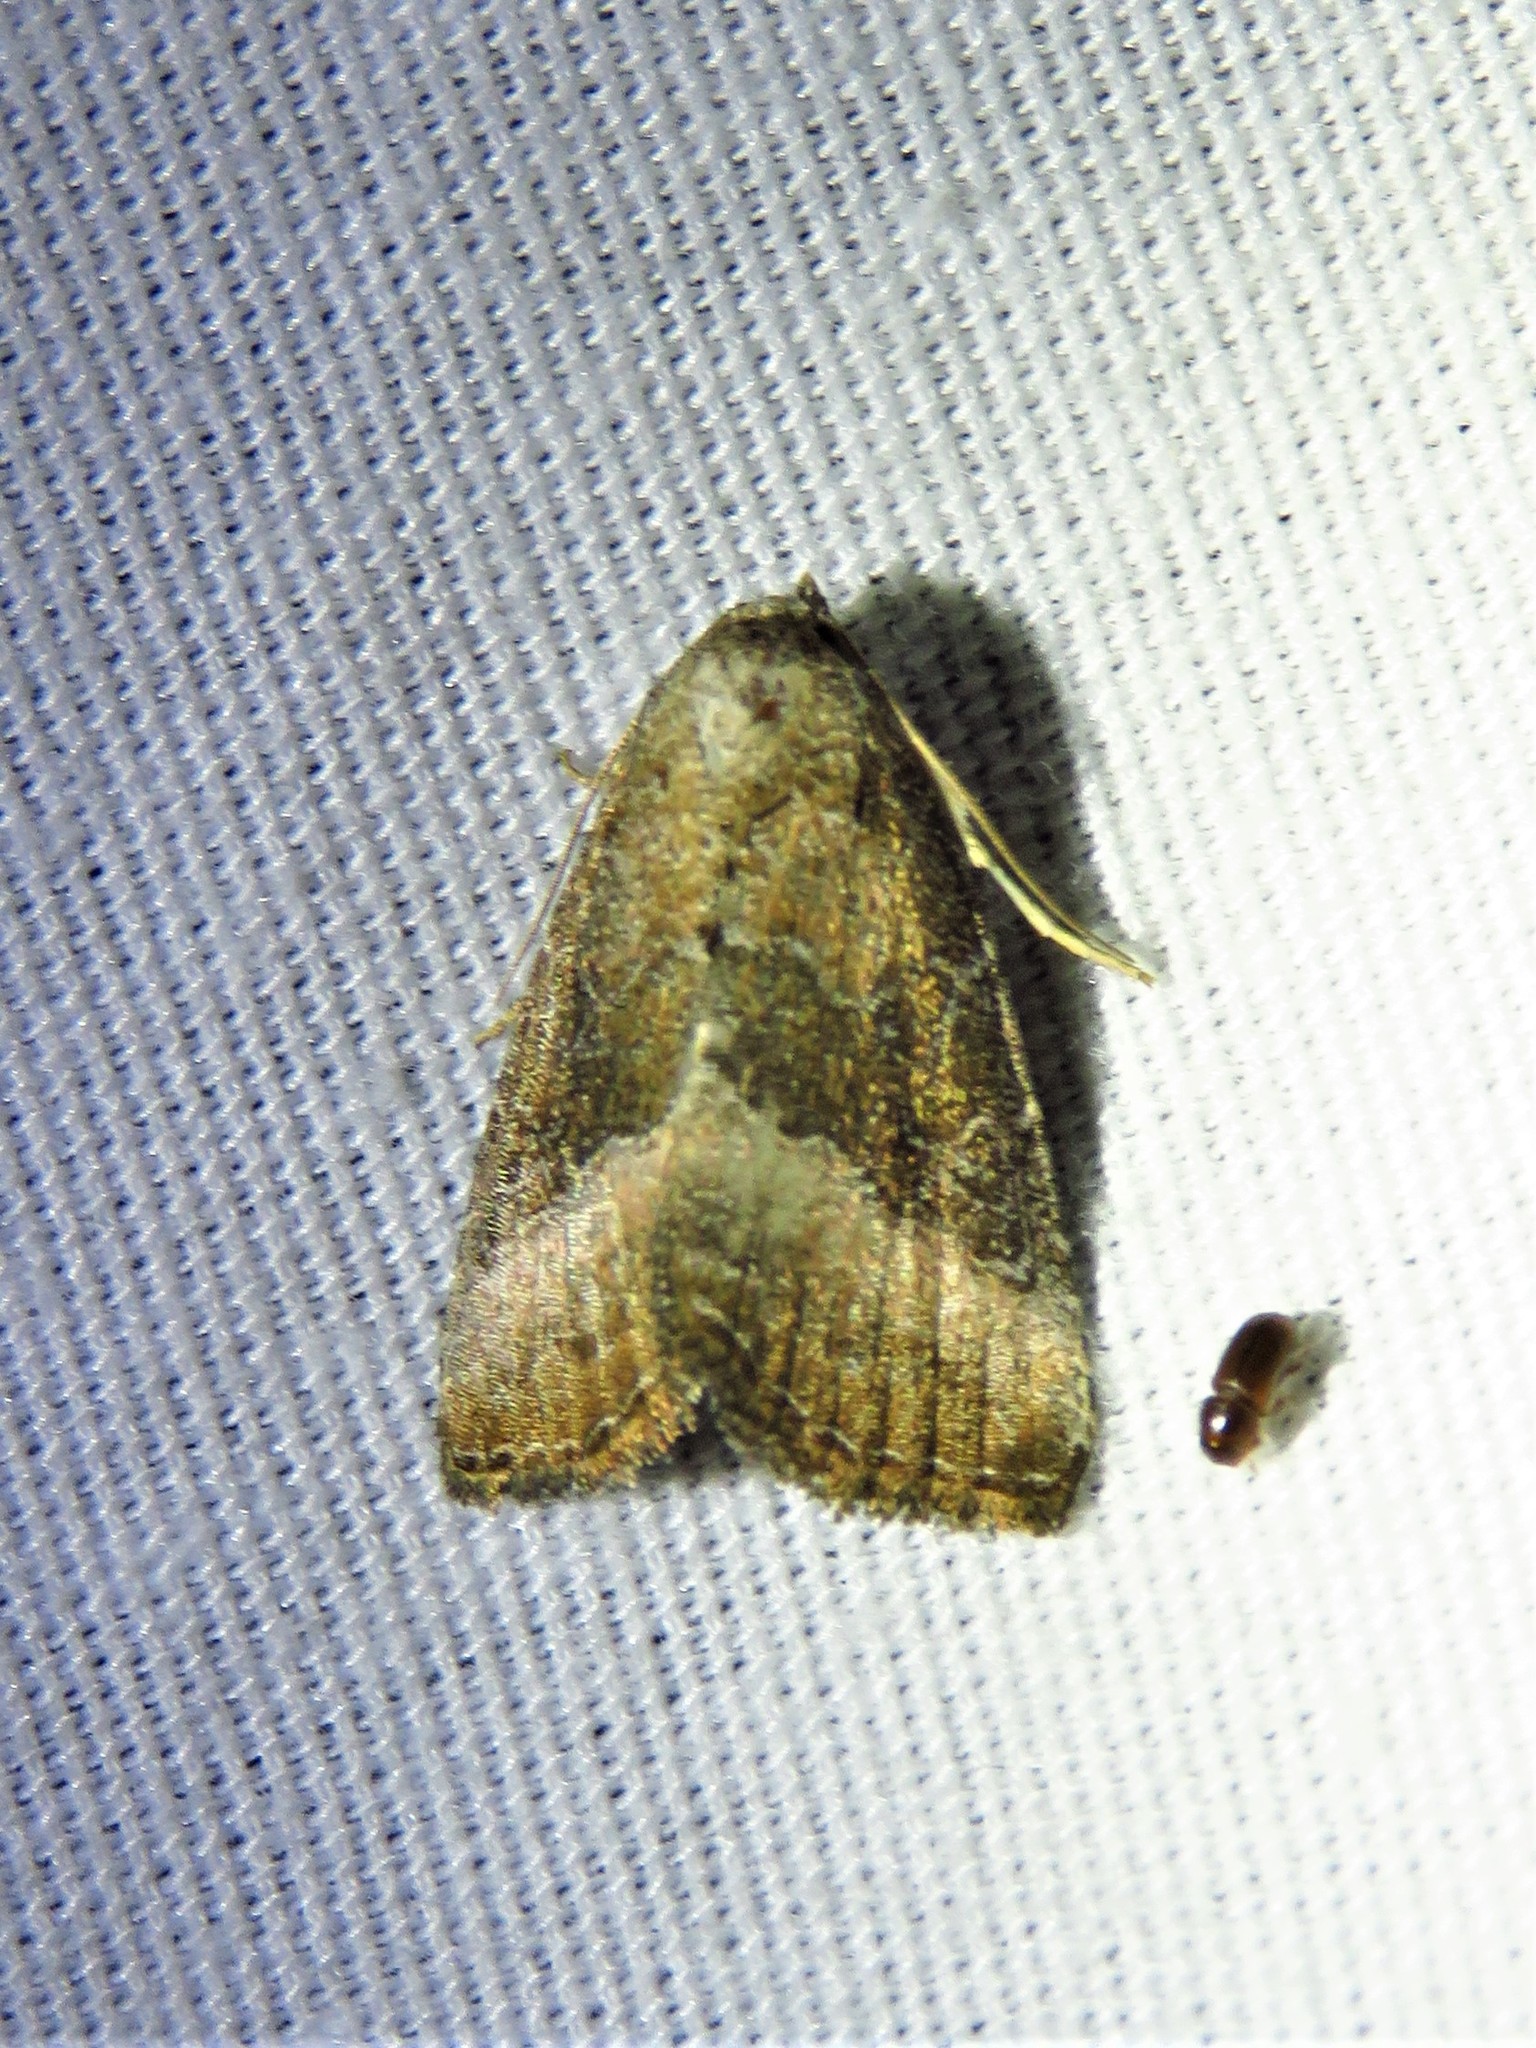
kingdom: Animalia
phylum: Arthropoda
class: Insecta
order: Lepidoptera
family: Noctuidae
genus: Ogdoconta
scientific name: Ogdoconta cinereola
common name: Common pinkband
